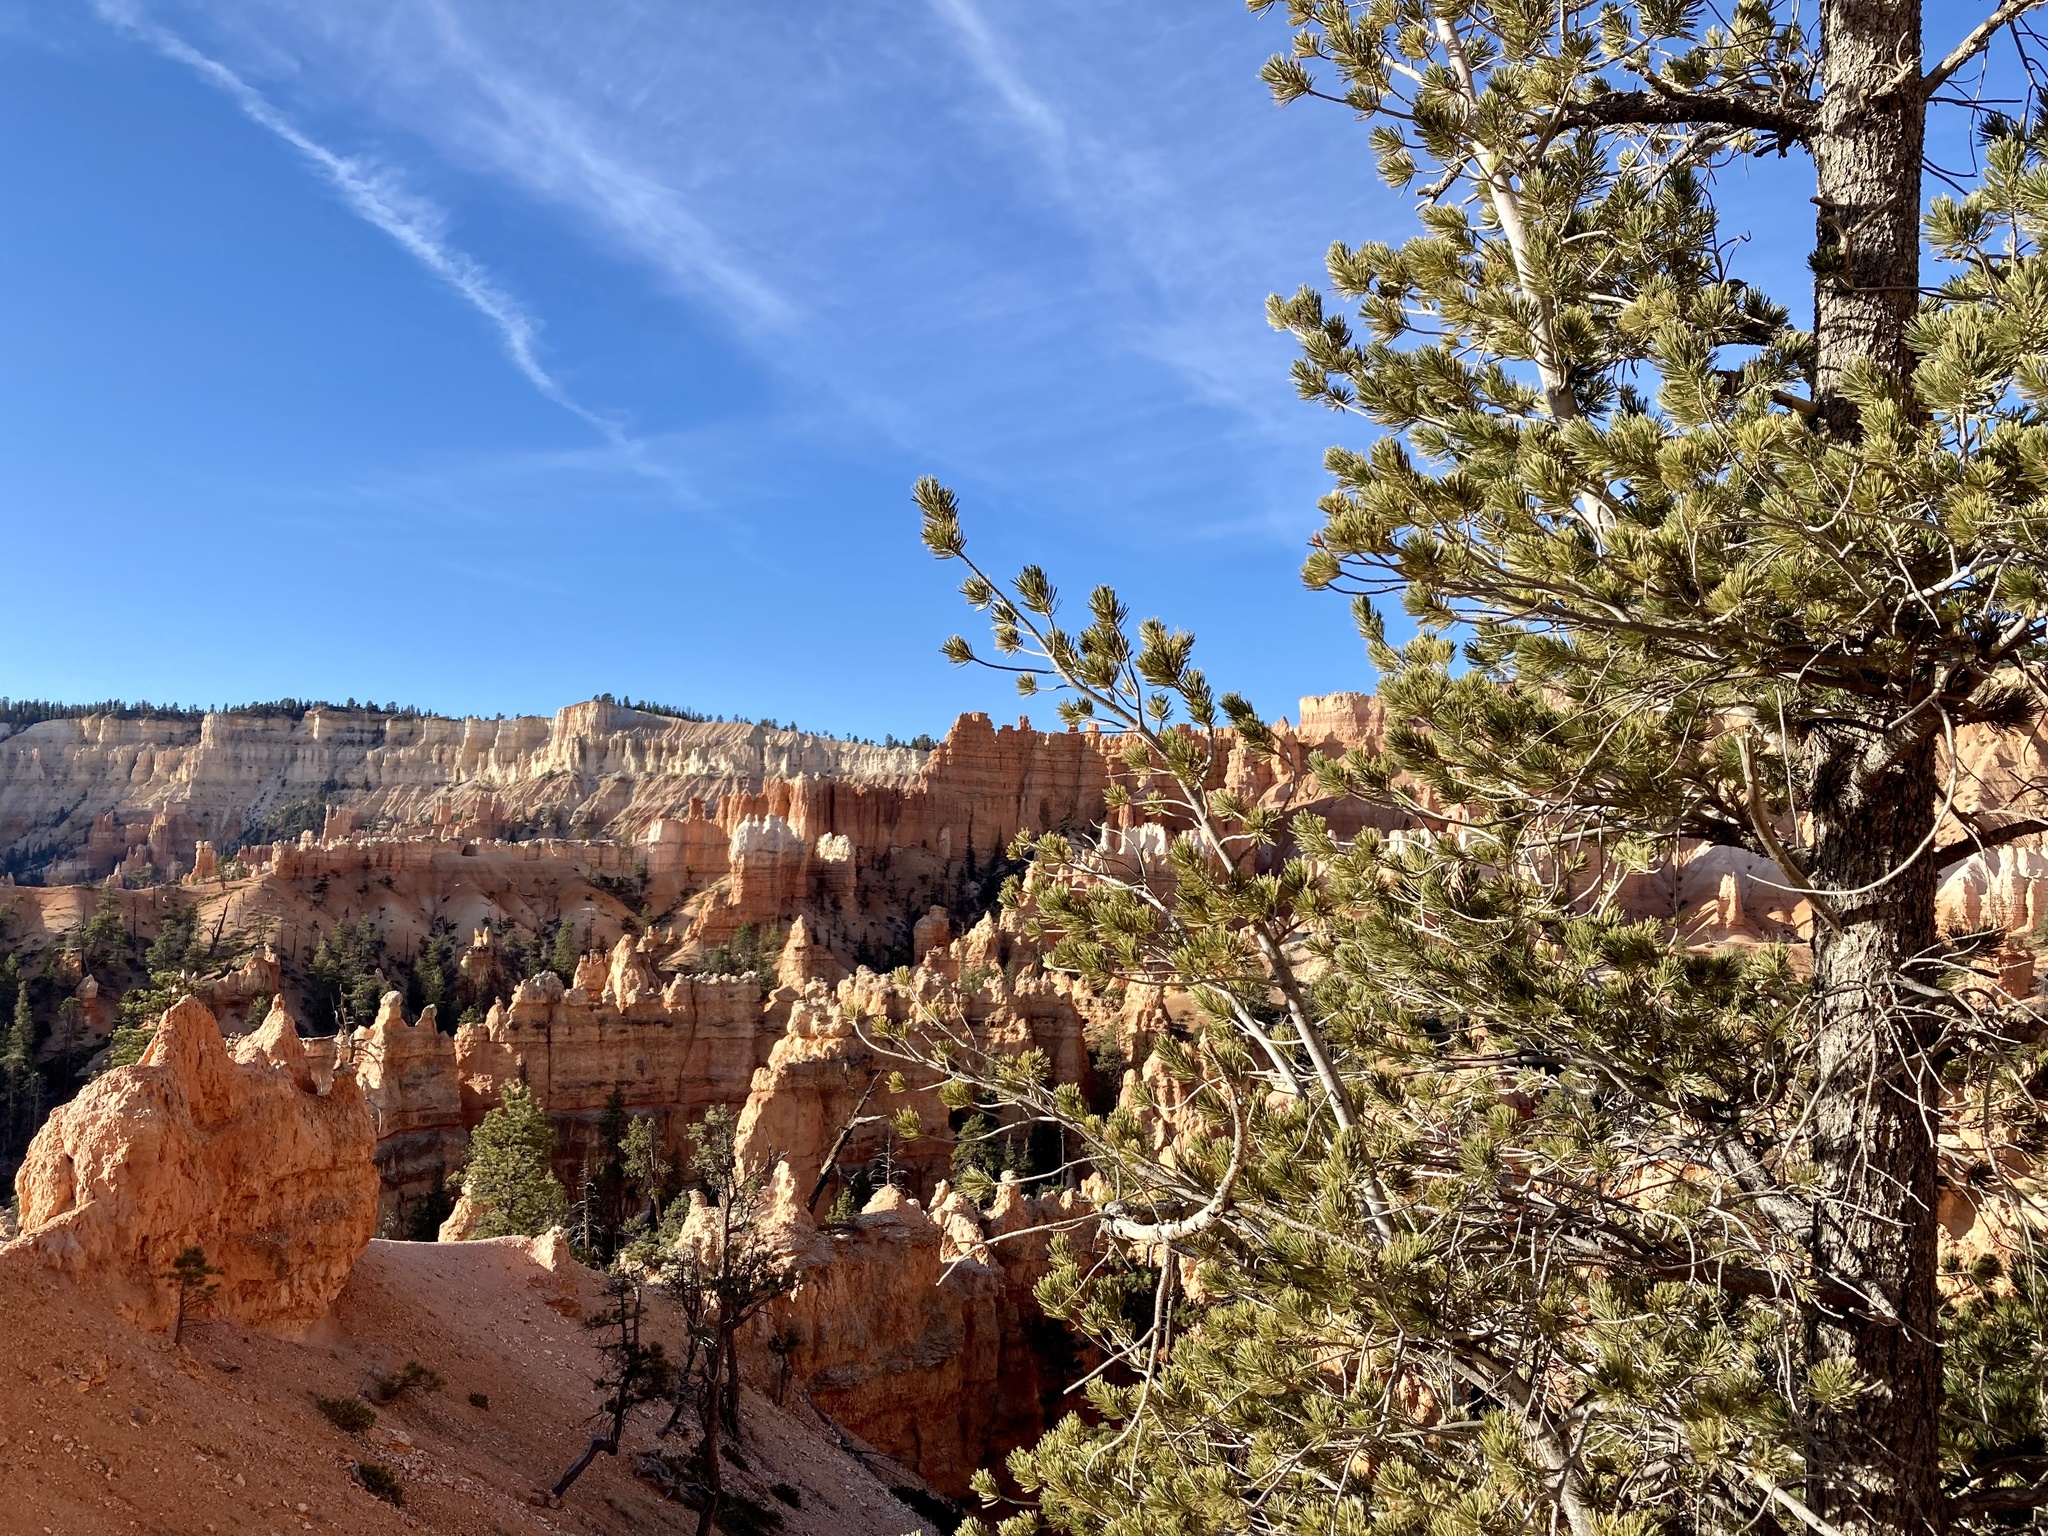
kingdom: Plantae
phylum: Tracheophyta
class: Pinopsida
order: Pinales
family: Pinaceae
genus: Pinus
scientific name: Pinus flexilis
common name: Limber pine
